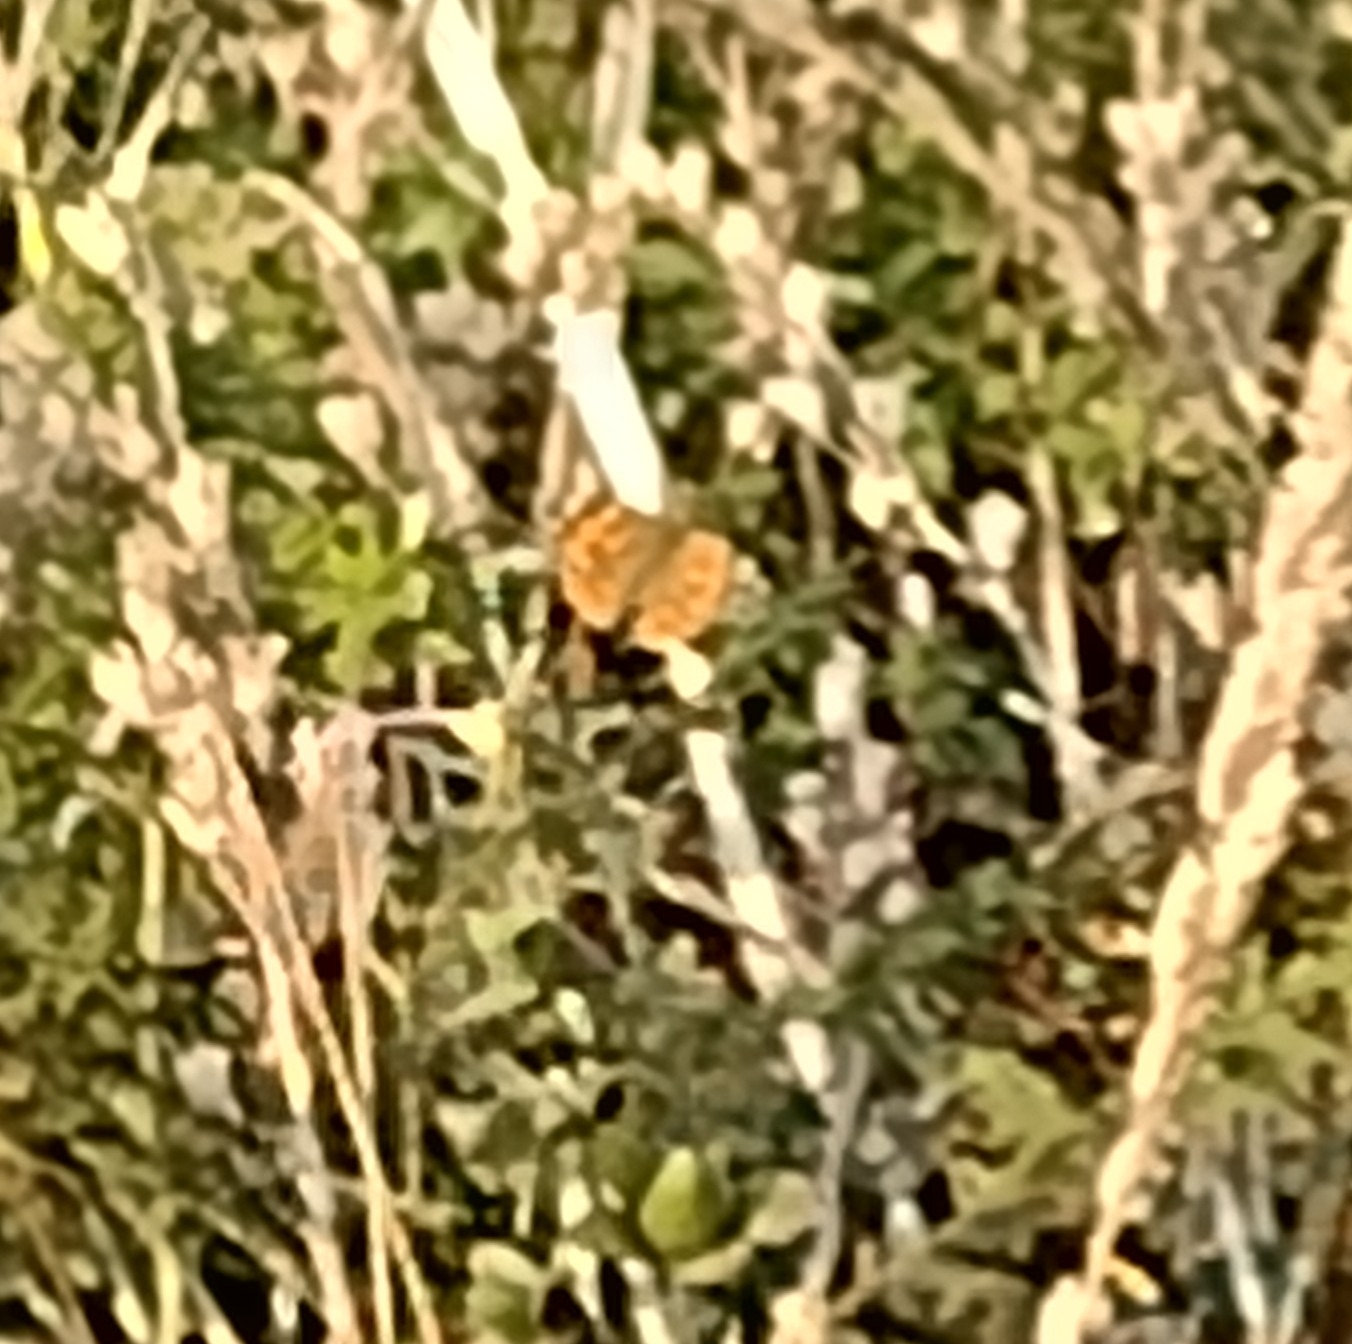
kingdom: Animalia
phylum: Arthropoda
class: Insecta
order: Lepidoptera
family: Nymphalidae
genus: Vanessa
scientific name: Vanessa cardui
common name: Painted lady
